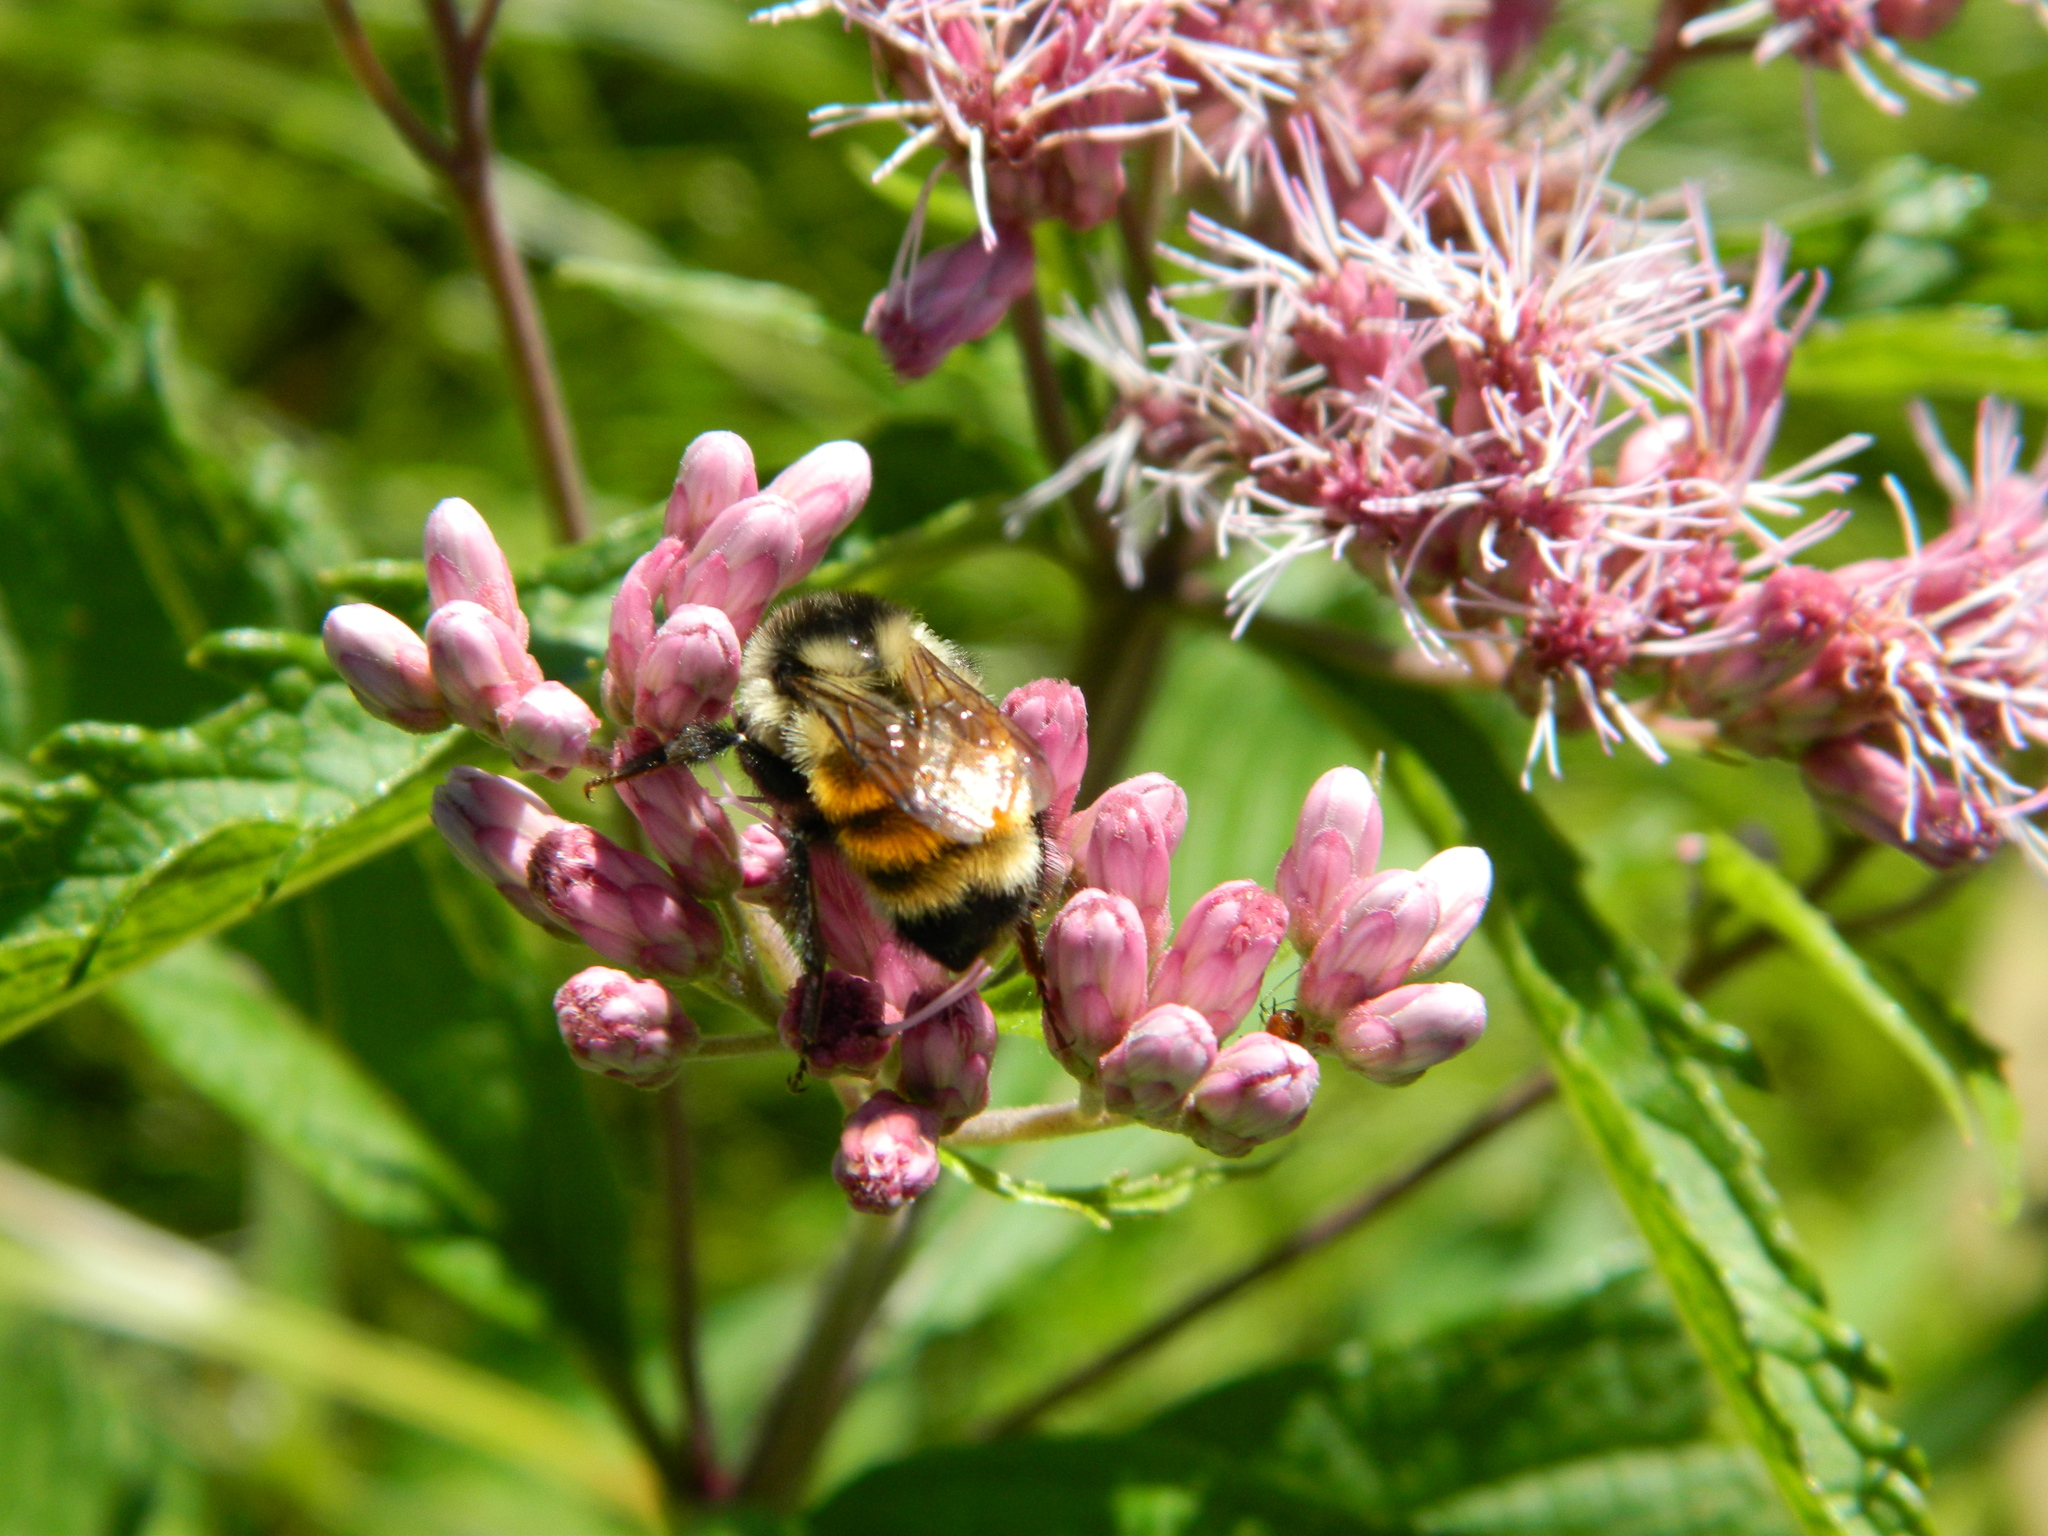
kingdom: Animalia
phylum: Arthropoda
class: Insecta
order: Hymenoptera
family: Apidae
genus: Bombus
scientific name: Bombus ternarius
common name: Tri-colored bumble bee
